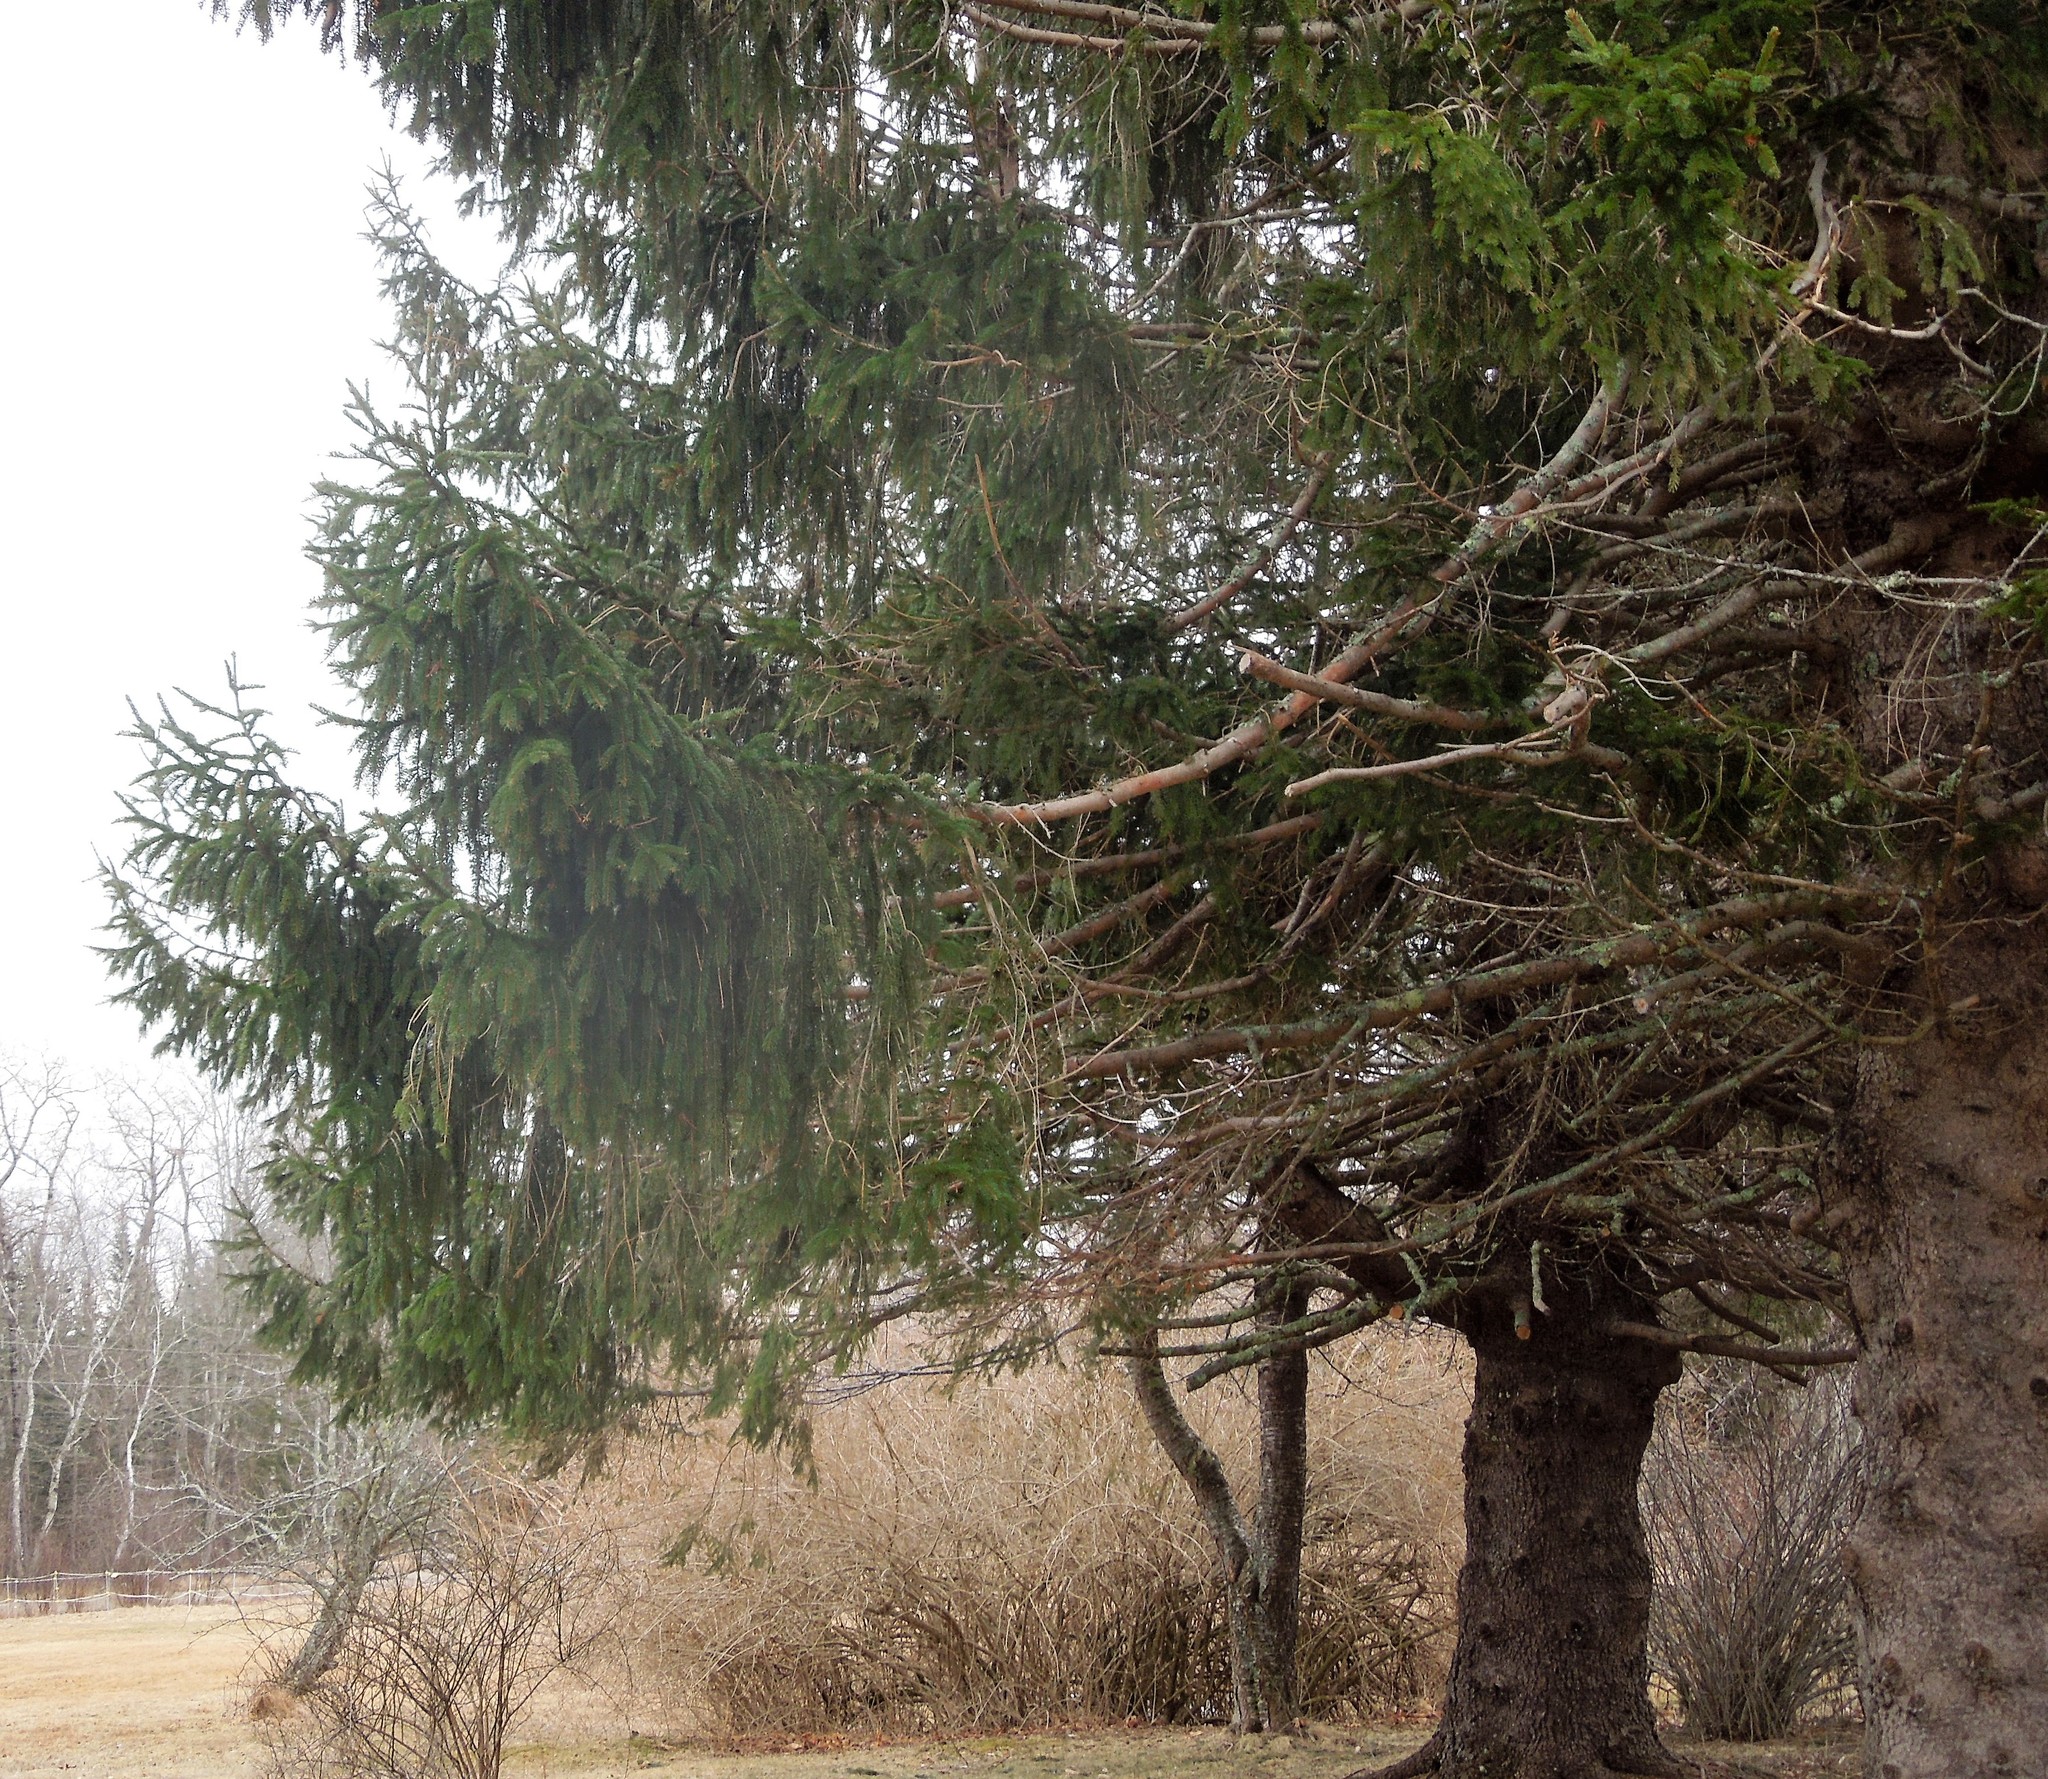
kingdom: Plantae
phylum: Tracheophyta
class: Pinopsida
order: Pinales
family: Pinaceae
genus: Picea
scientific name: Picea abies
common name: Norway spruce
